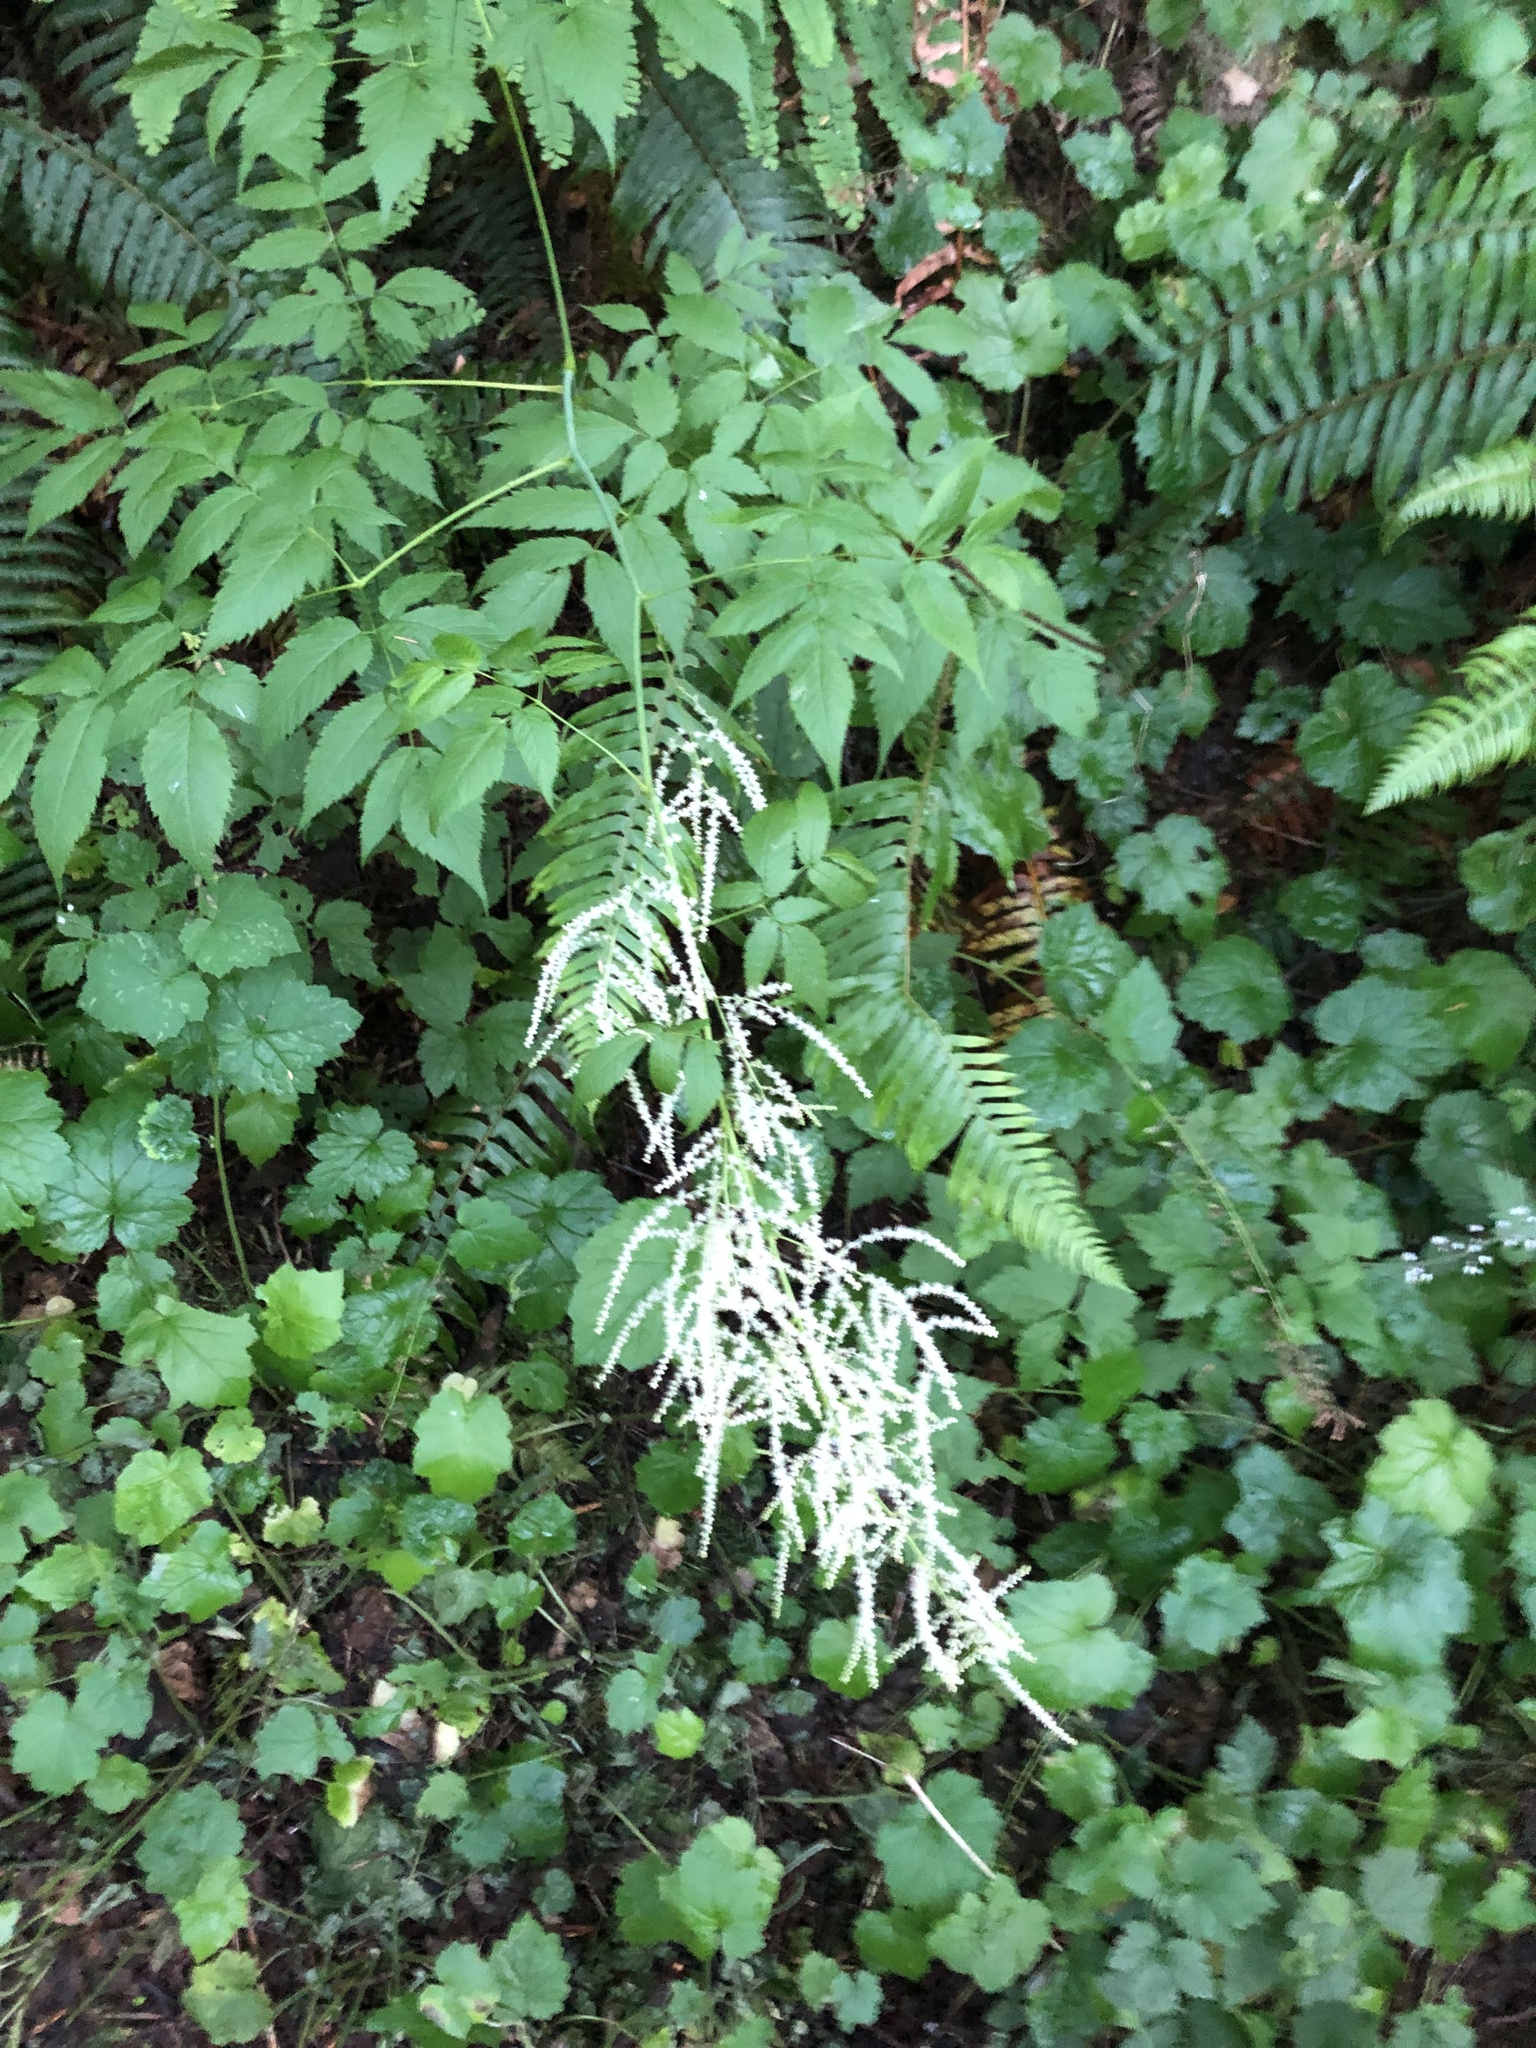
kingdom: Plantae
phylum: Tracheophyta
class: Magnoliopsida
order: Rosales
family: Rosaceae
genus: Aruncus
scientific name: Aruncus dioicus
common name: Buck's-beard
